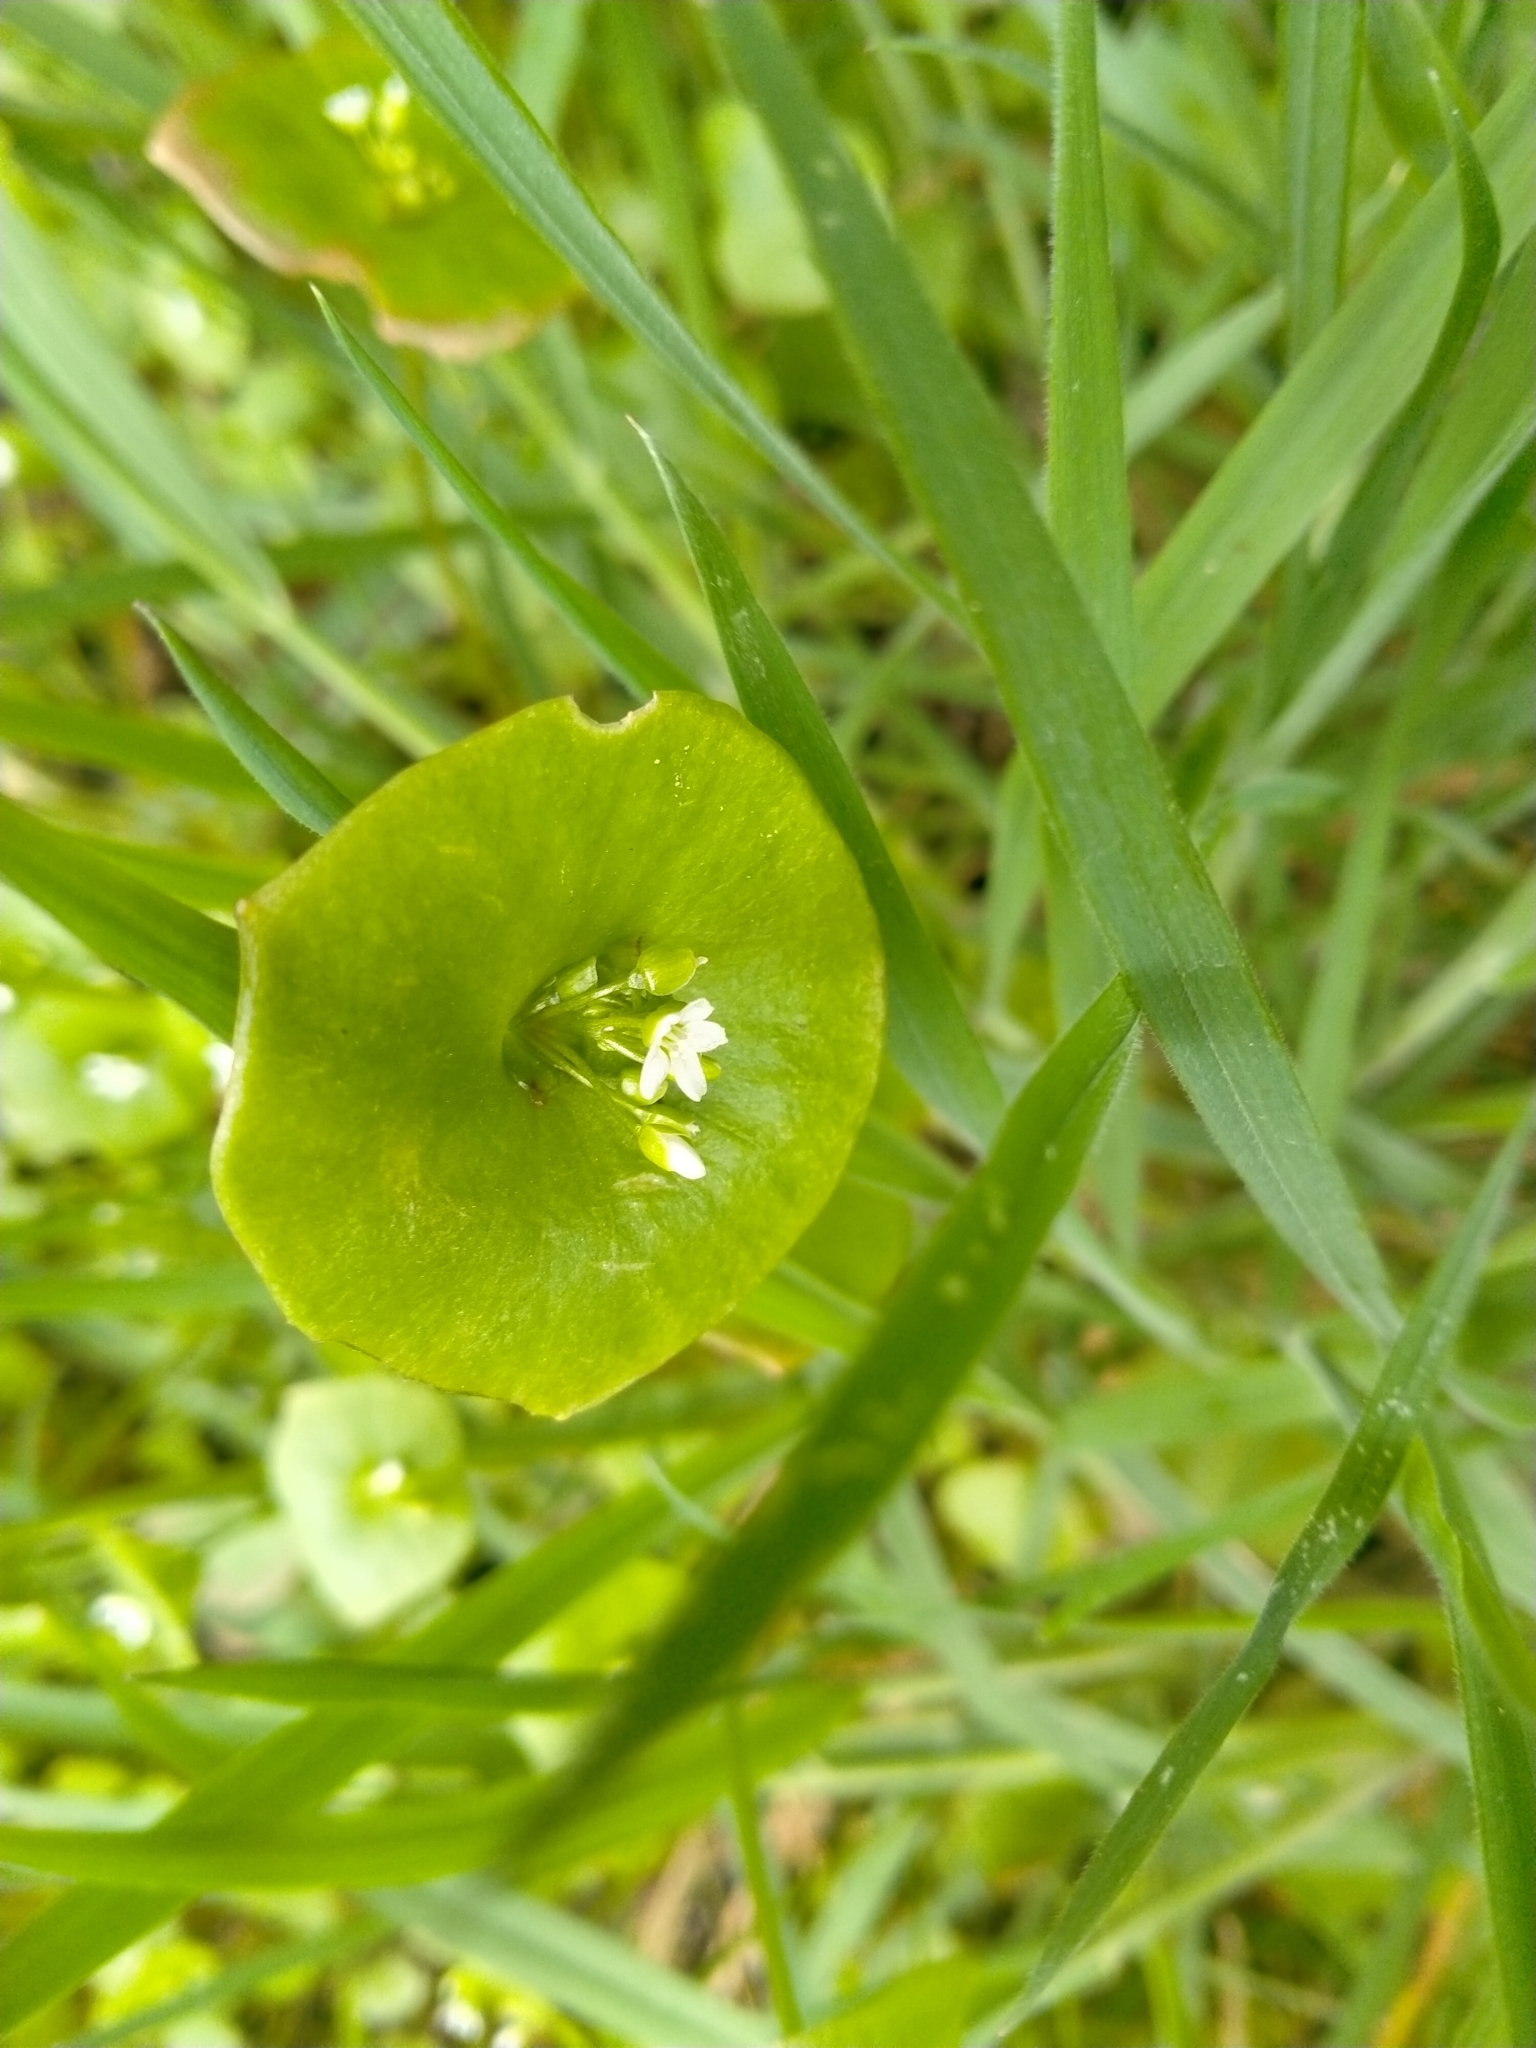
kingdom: Plantae
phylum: Tracheophyta
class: Magnoliopsida
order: Caryophyllales
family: Montiaceae
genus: Claytonia
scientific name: Claytonia perfoliata
